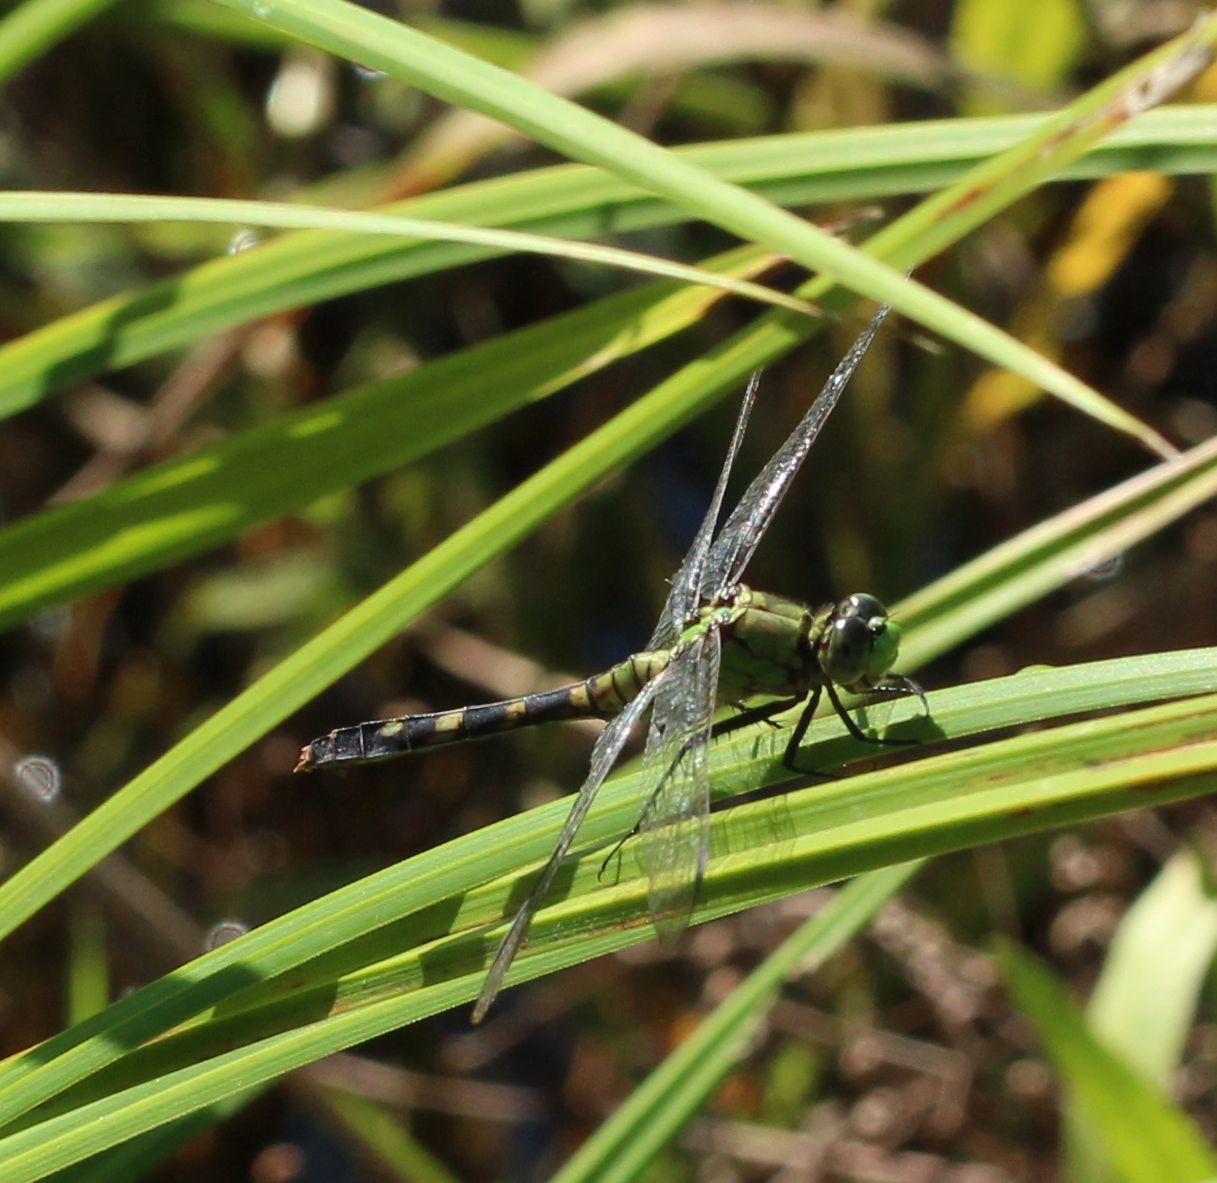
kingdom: Animalia
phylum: Arthropoda
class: Insecta
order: Odonata
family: Libellulidae
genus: Erythemis
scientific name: Erythemis simplicicollis
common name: Eastern pondhawk
